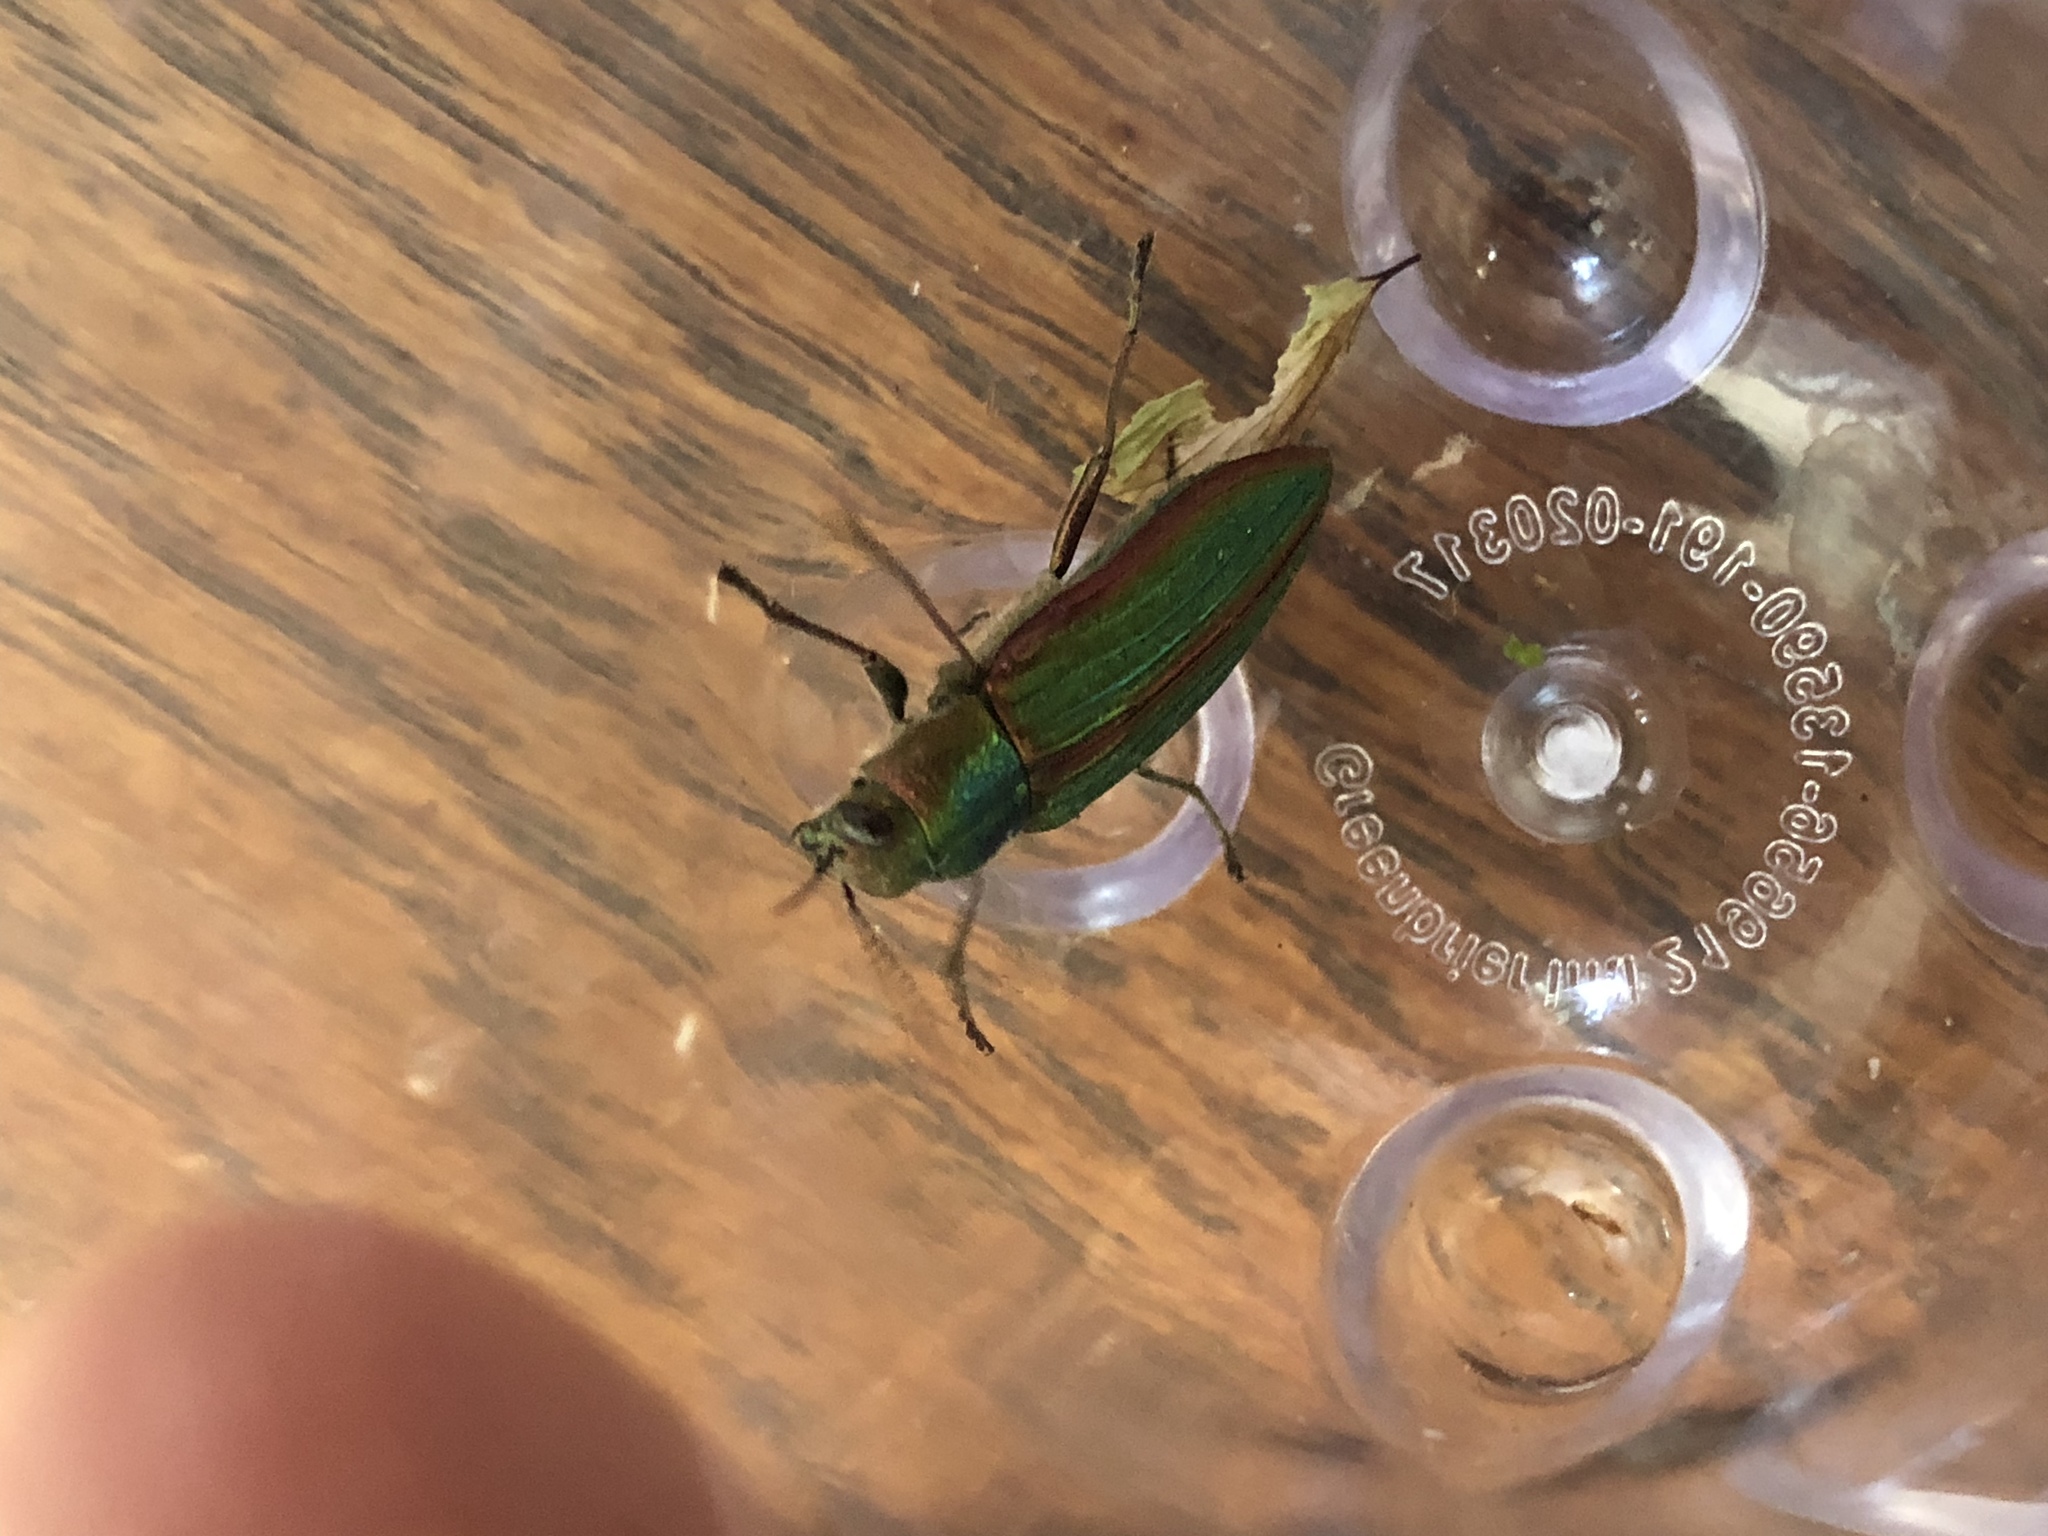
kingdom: Animalia
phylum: Arthropoda
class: Insecta
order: Coleoptera
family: Buprestidae
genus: Buprestis
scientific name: Buprestis aurulenta
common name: Golden buprestid
